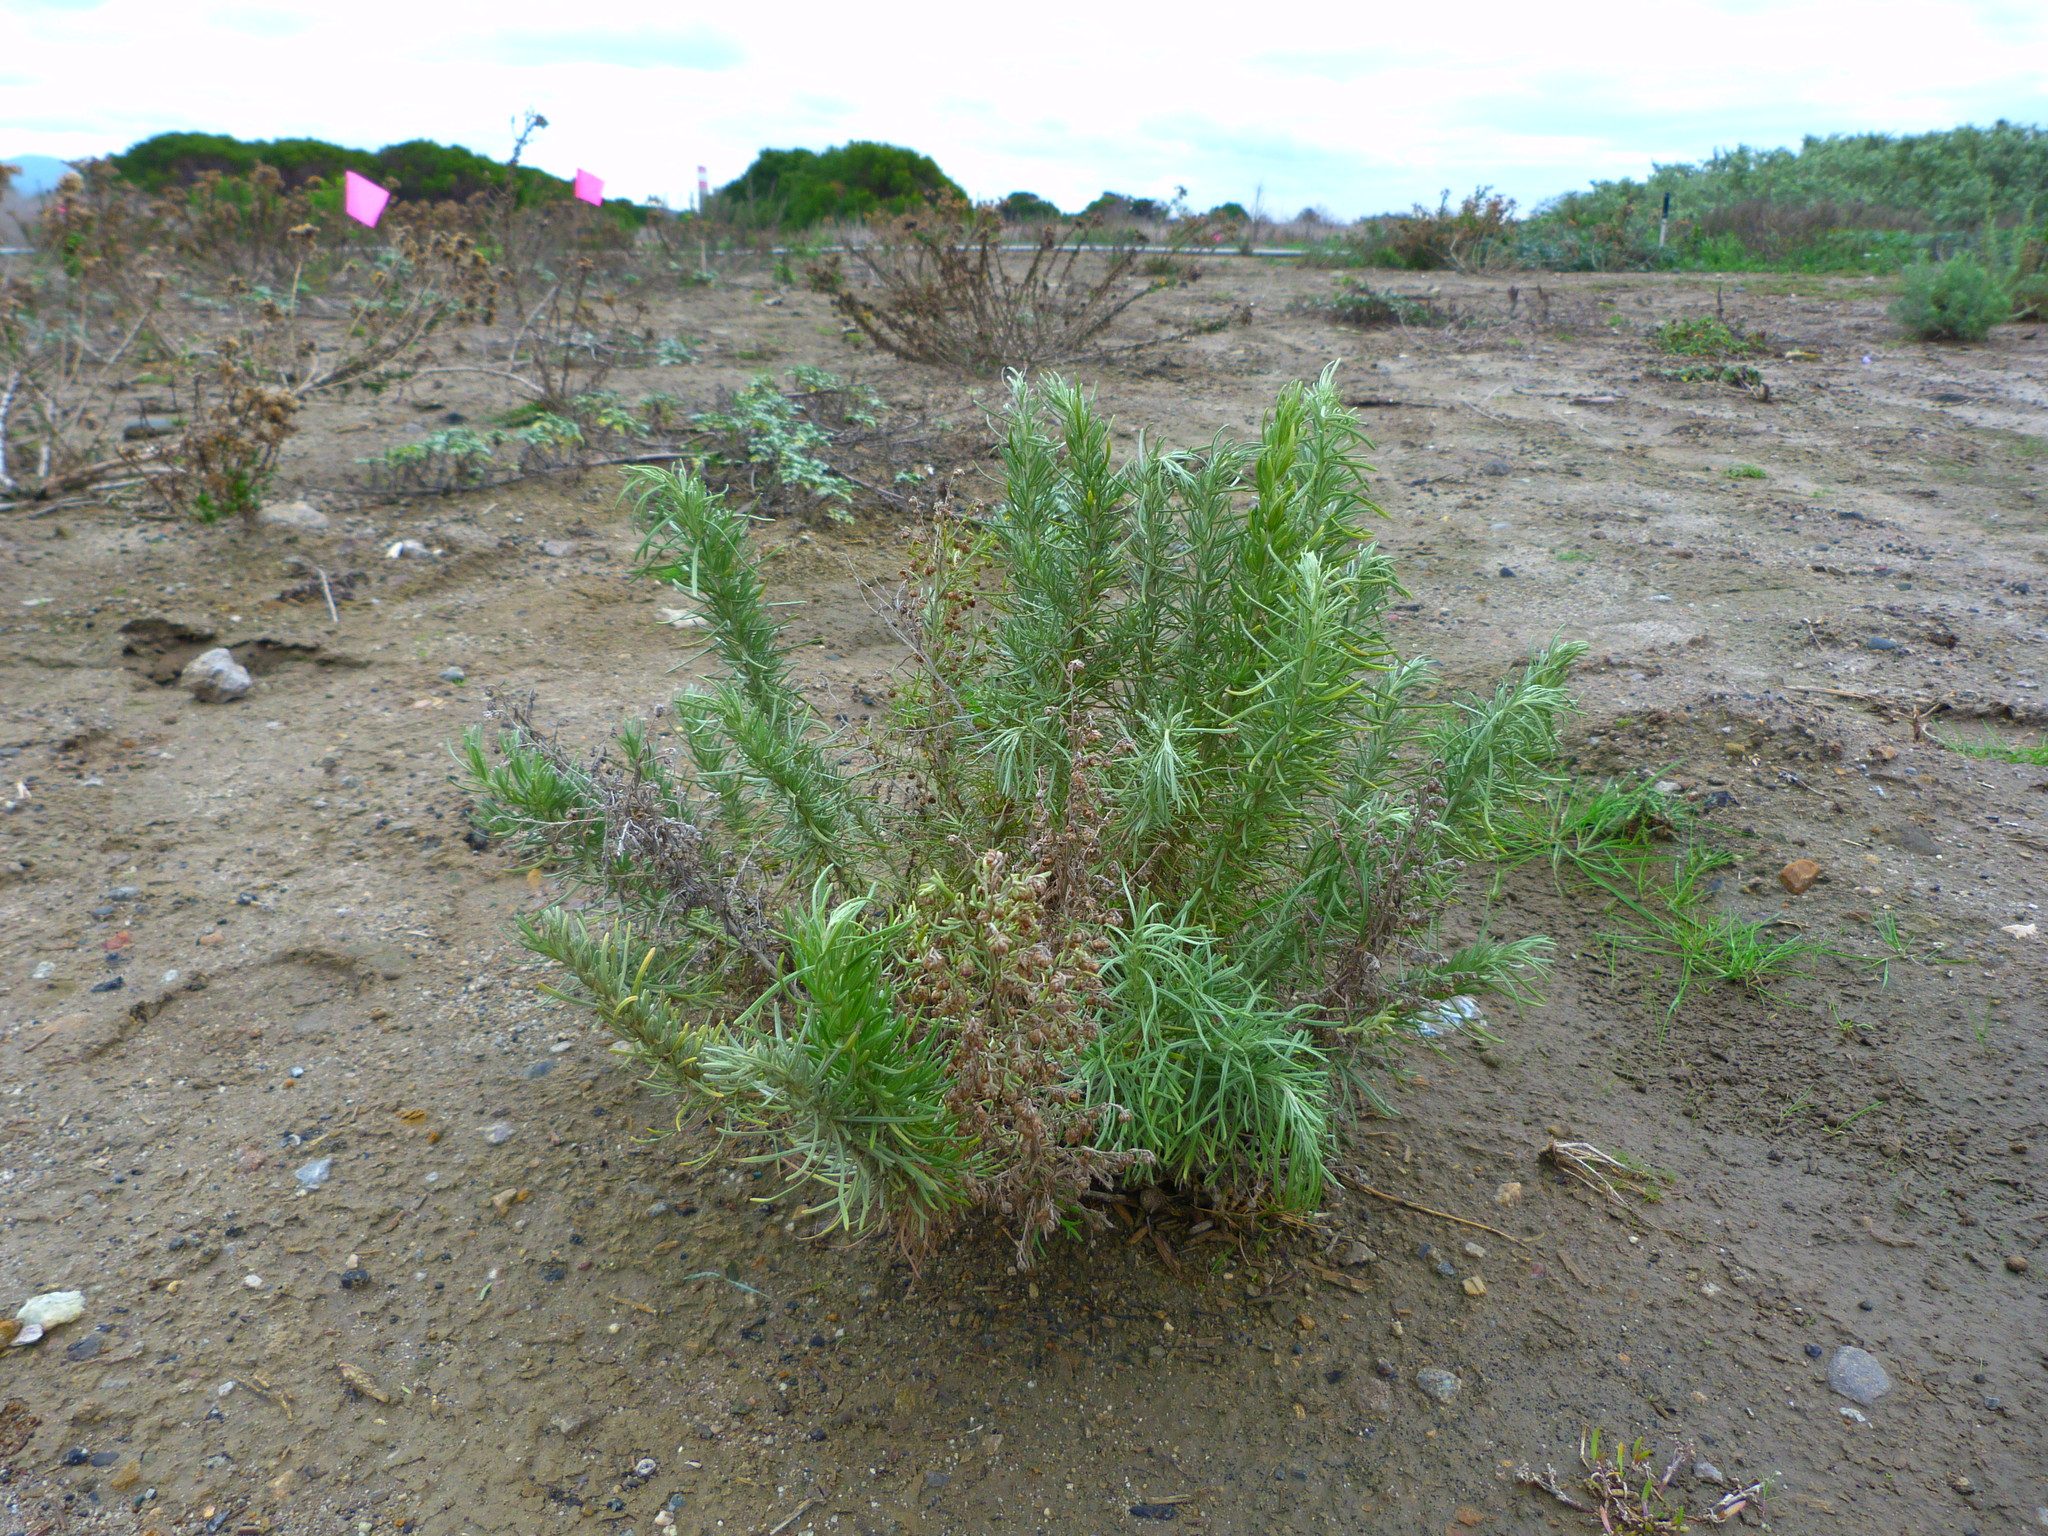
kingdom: Plantae
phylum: Tracheophyta
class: Magnoliopsida
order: Asterales
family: Asteraceae
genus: Artemisia
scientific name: Artemisia californica
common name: California sagebrush
